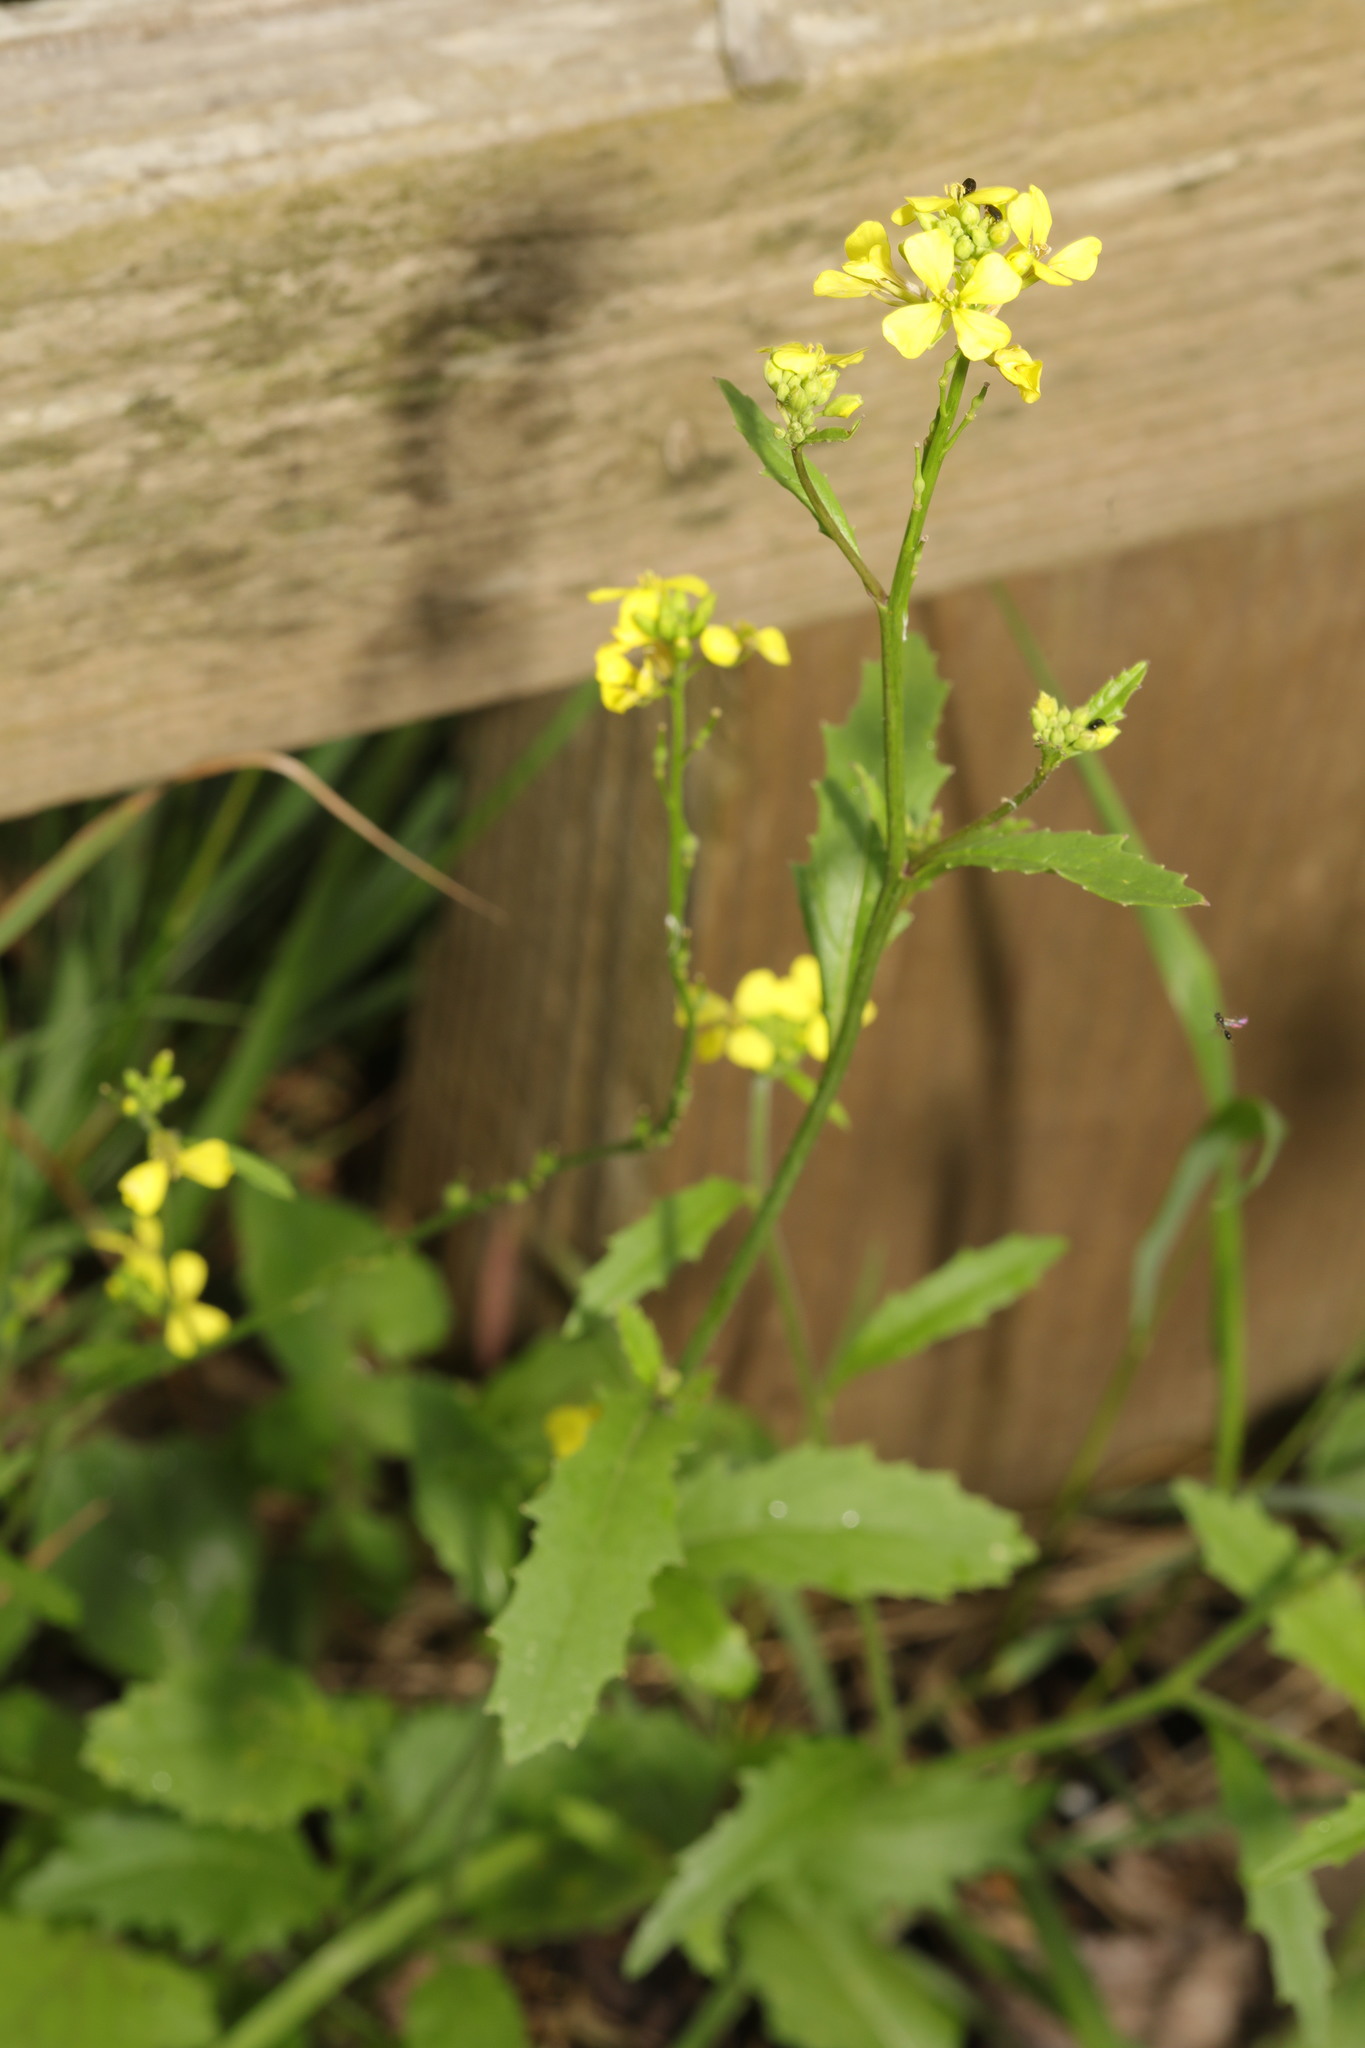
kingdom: Plantae
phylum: Tracheophyta
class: Magnoliopsida
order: Brassicales
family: Brassicaceae
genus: Sinapis
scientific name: Sinapis arvensis
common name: Charlock
